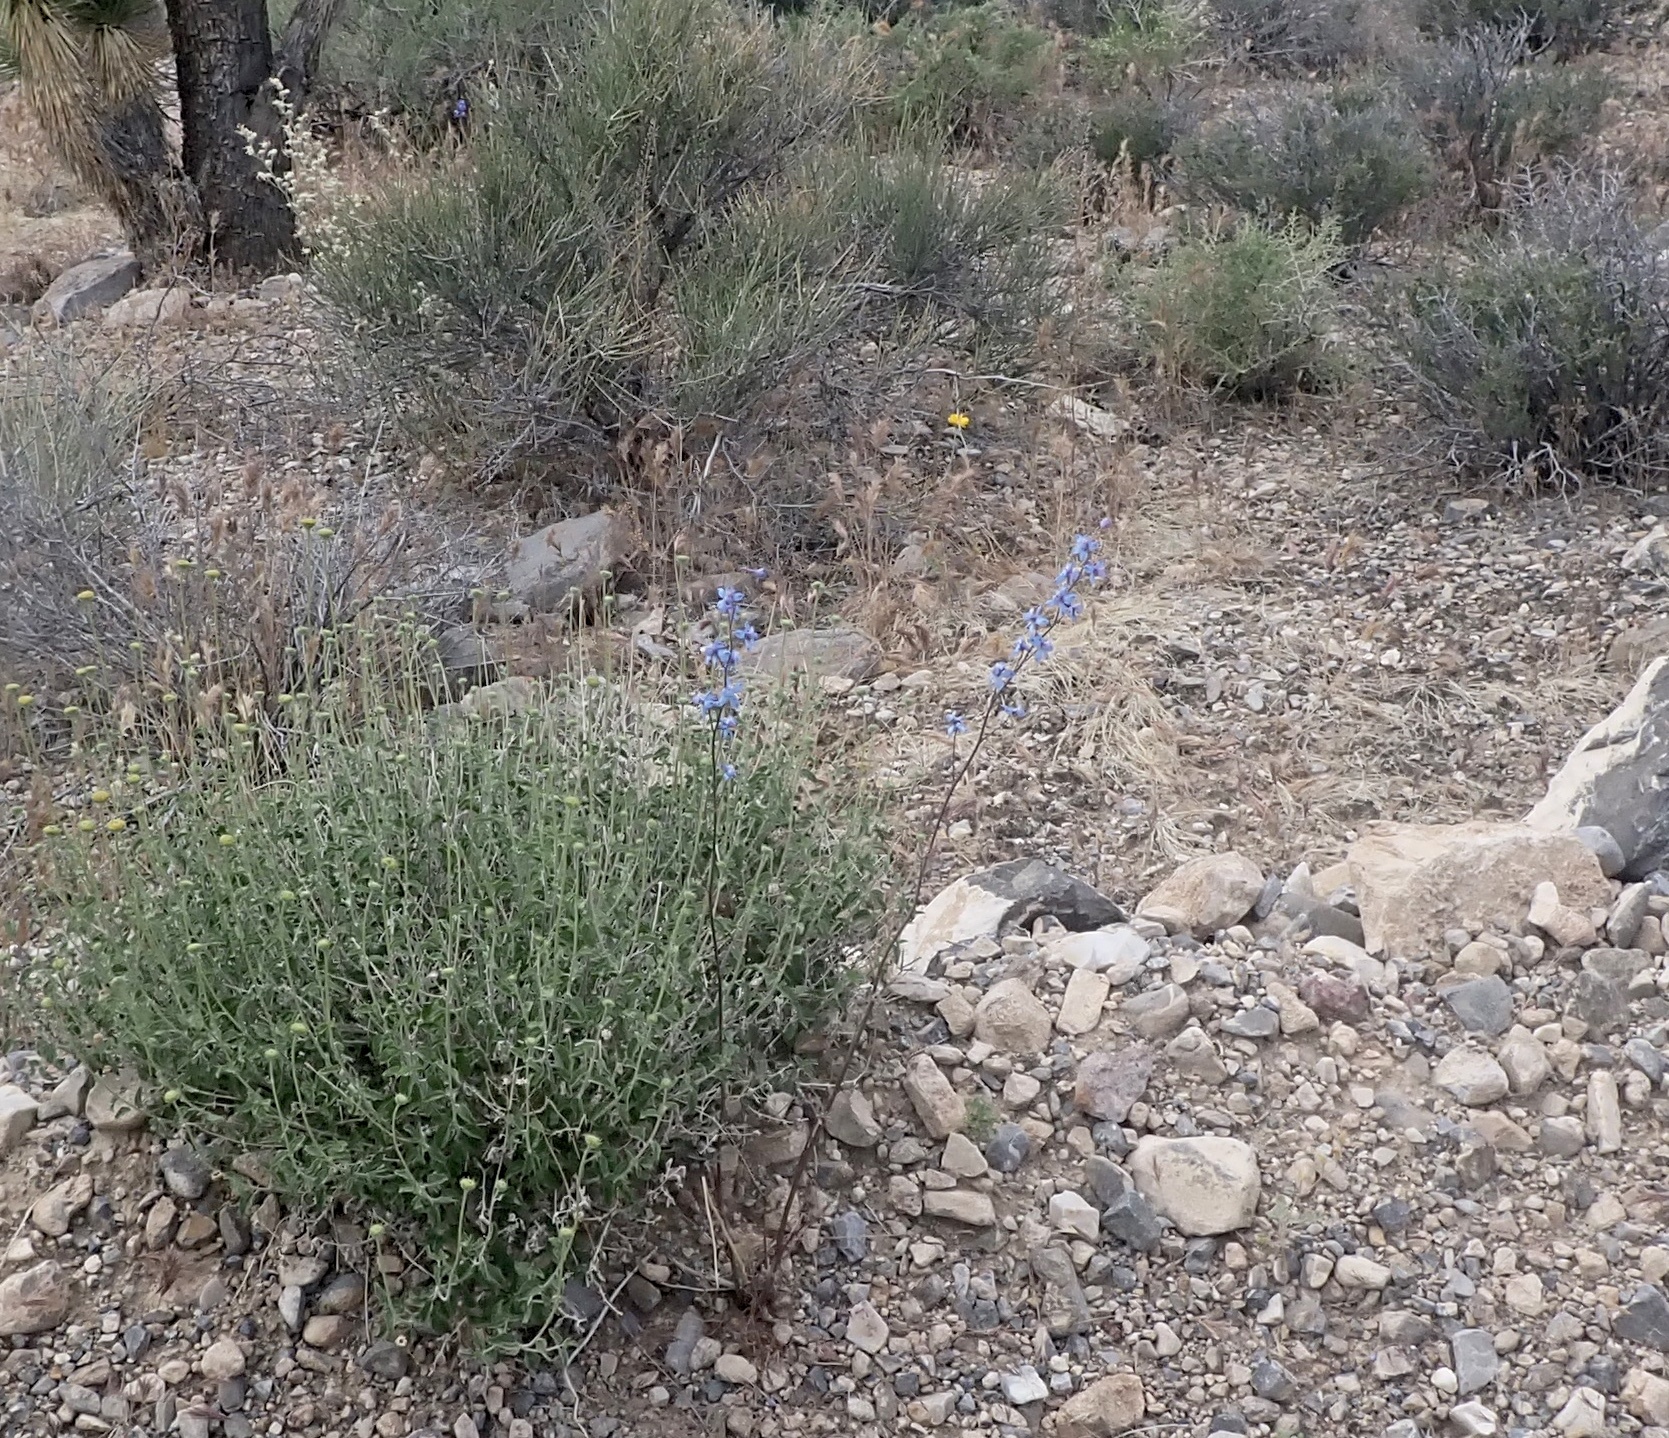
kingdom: Plantae
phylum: Tracheophyta
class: Magnoliopsida
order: Ranunculales
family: Ranunculaceae
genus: Delphinium
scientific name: Delphinium parishii
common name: Apache larkspur
